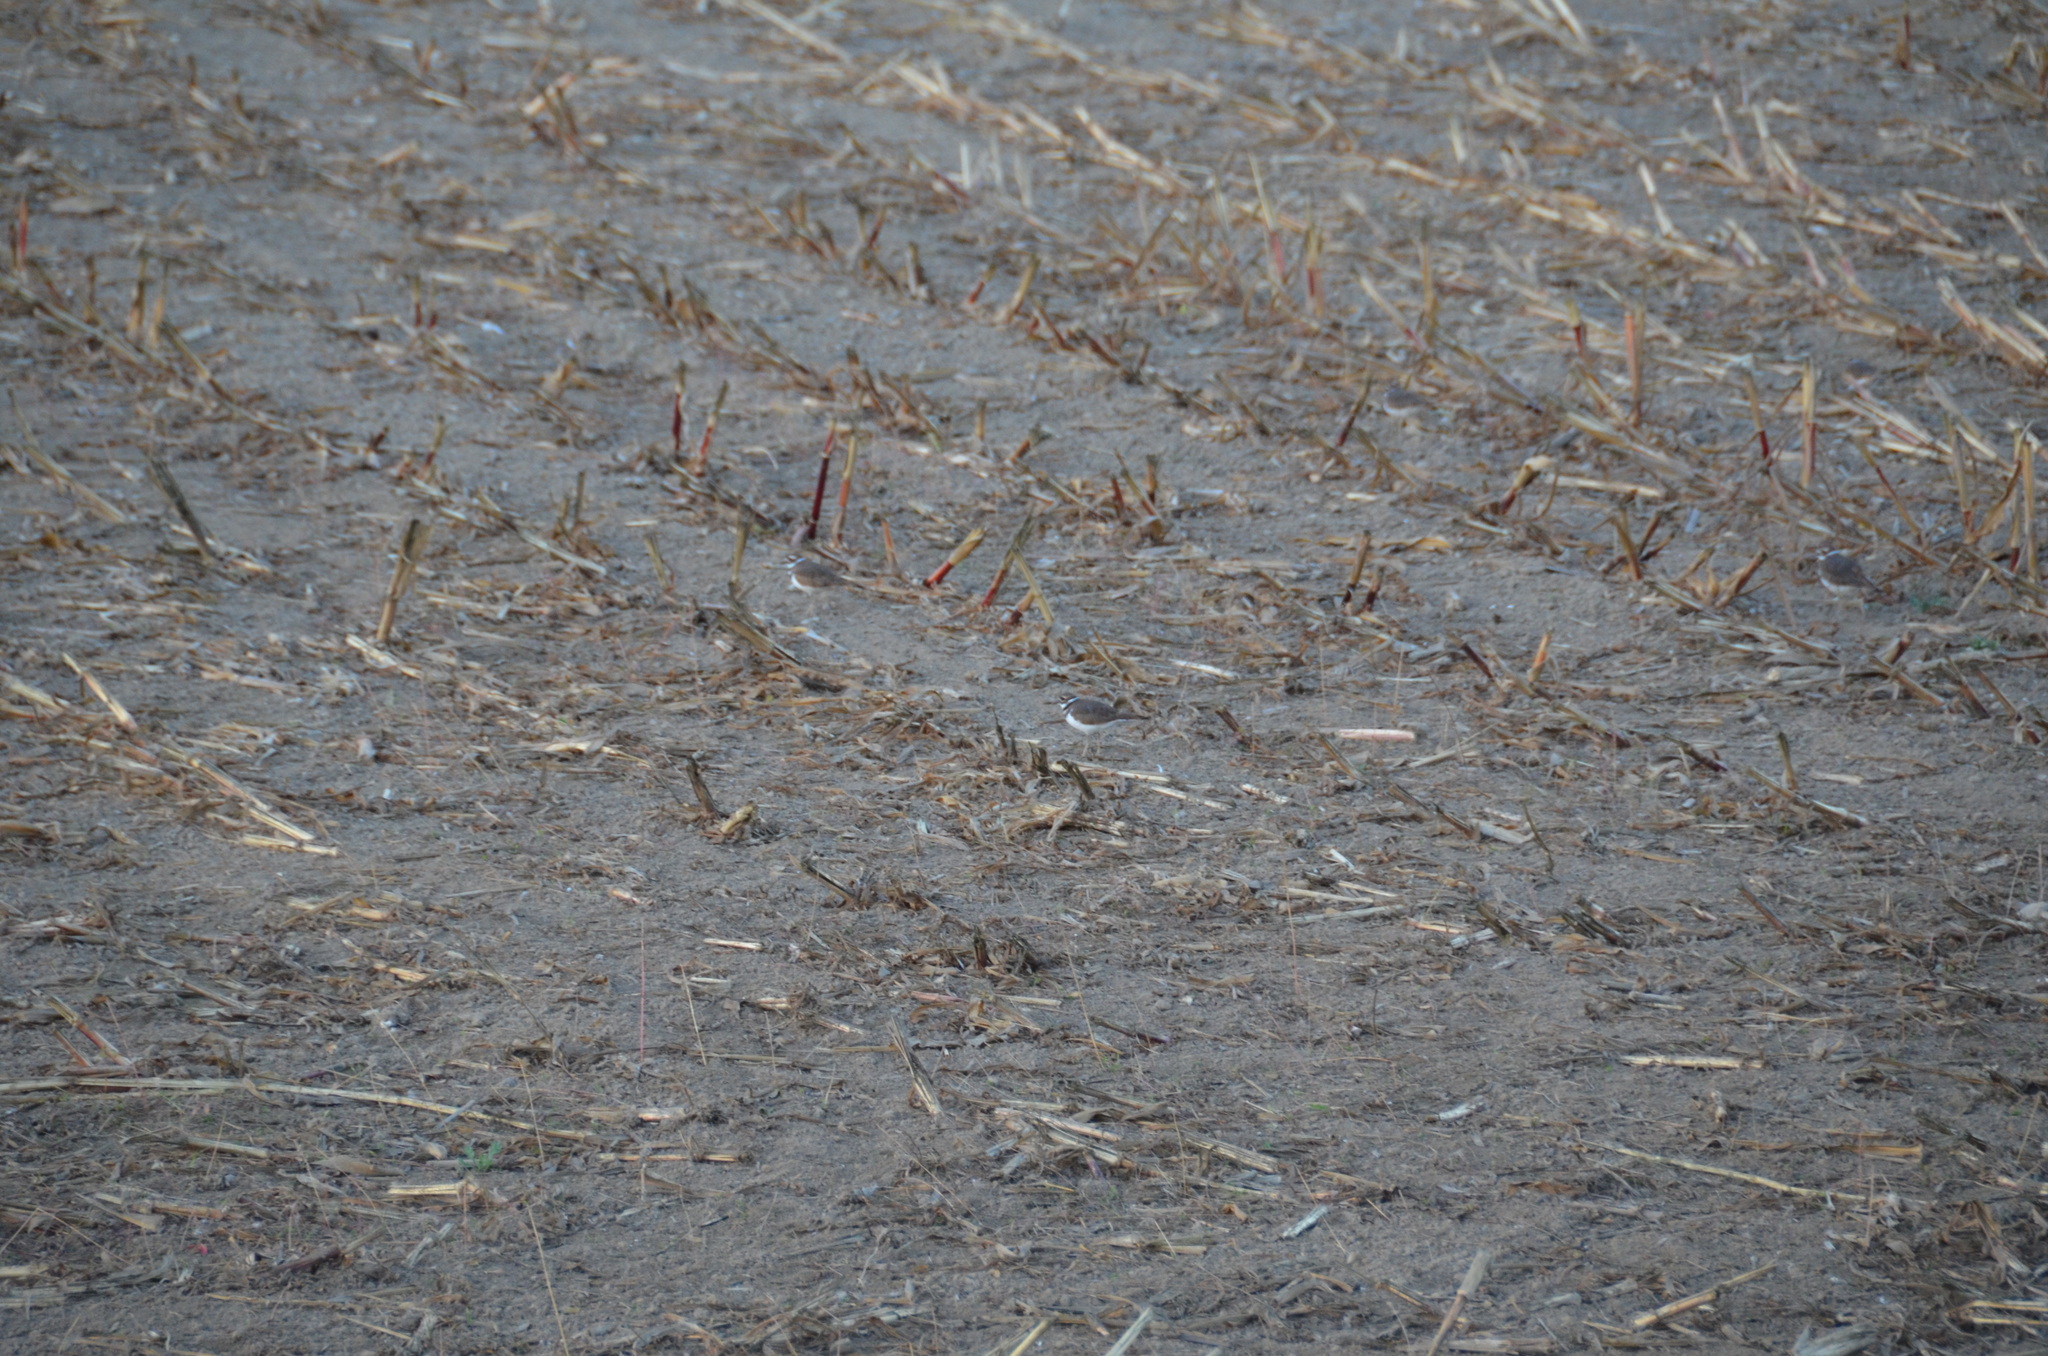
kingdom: Animalia
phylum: Chordata
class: Aves
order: Charadriiformes
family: Charadriidae
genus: Charadrius
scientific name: Charadrius vociferus
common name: Killdeer
